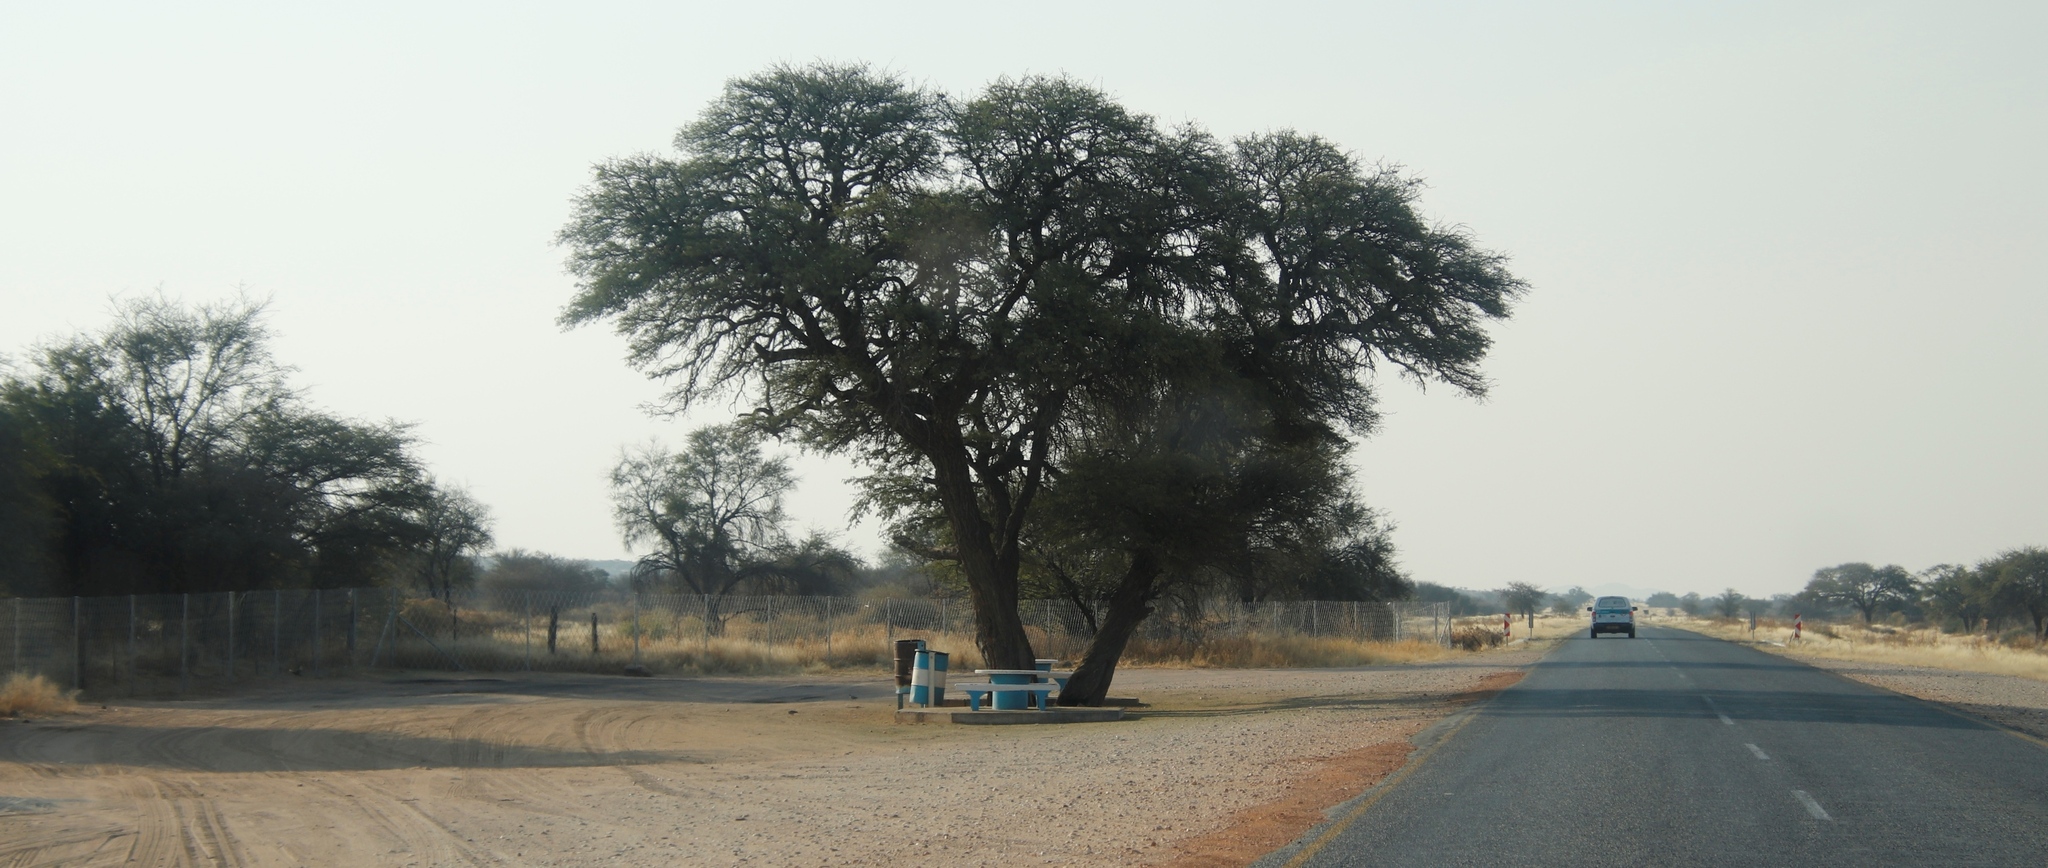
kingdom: Plantae
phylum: Tracheophyta
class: Magnoliopsida
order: Fabales
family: Fabaceae
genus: Vachellia
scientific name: Vachellia erioloba
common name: Camel thorn
